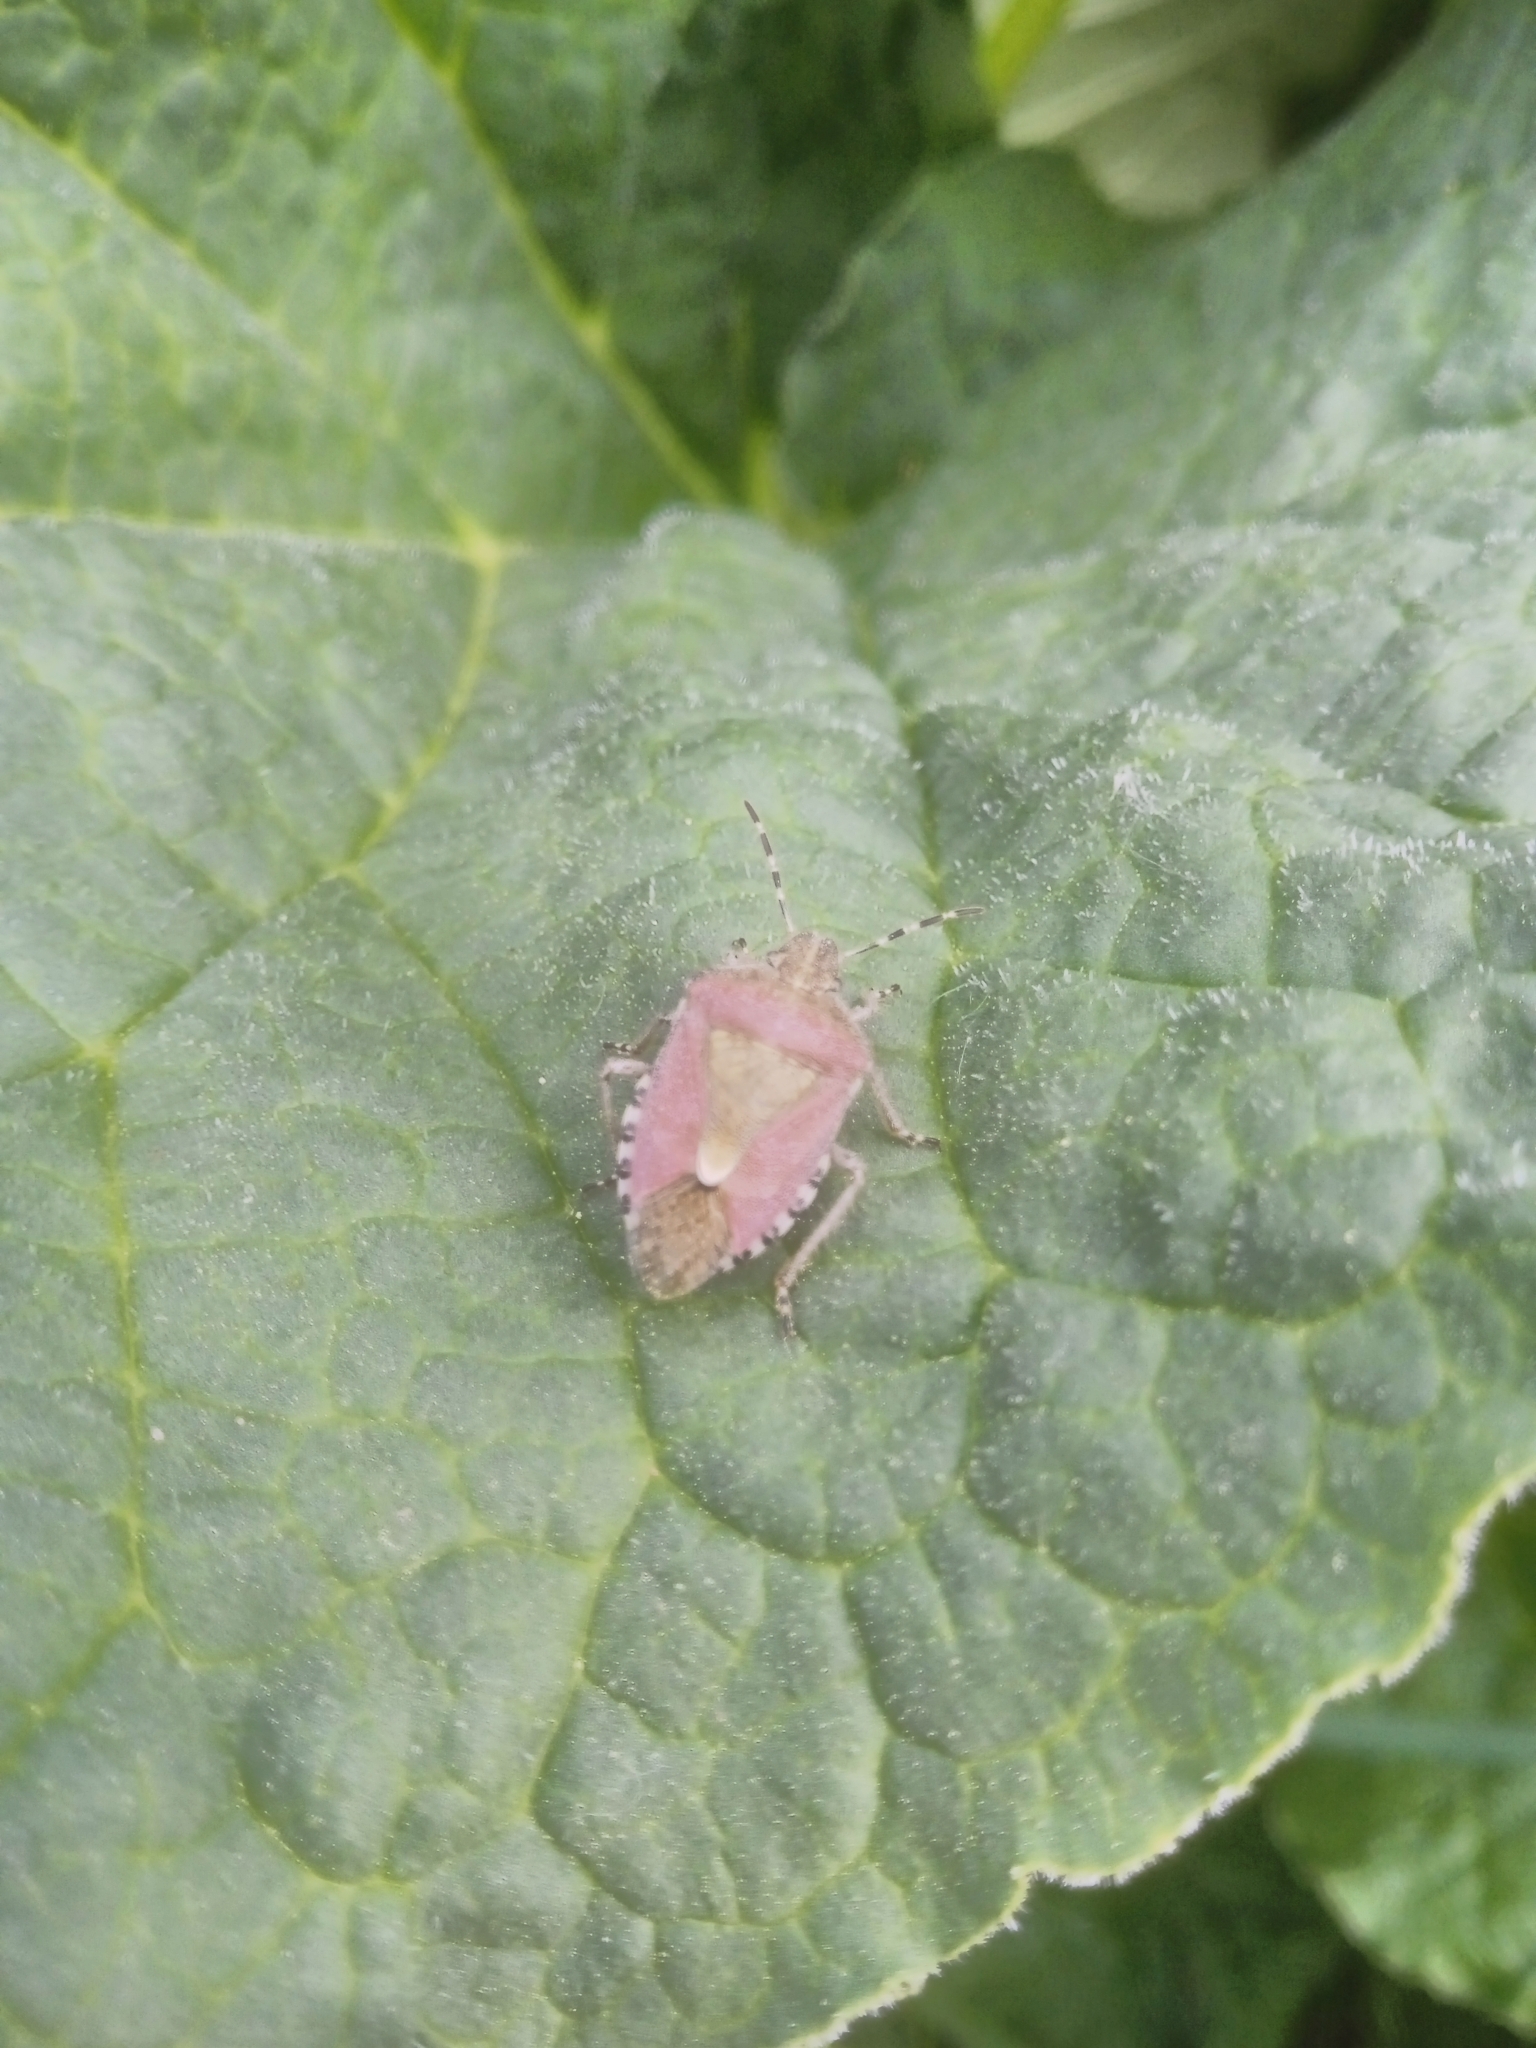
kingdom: Animalia
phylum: Arthropoda
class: Insecta
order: Hemiptera
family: Pentatomidae
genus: Dolycoris
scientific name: Dolycoris baccarum
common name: Sloe bug
